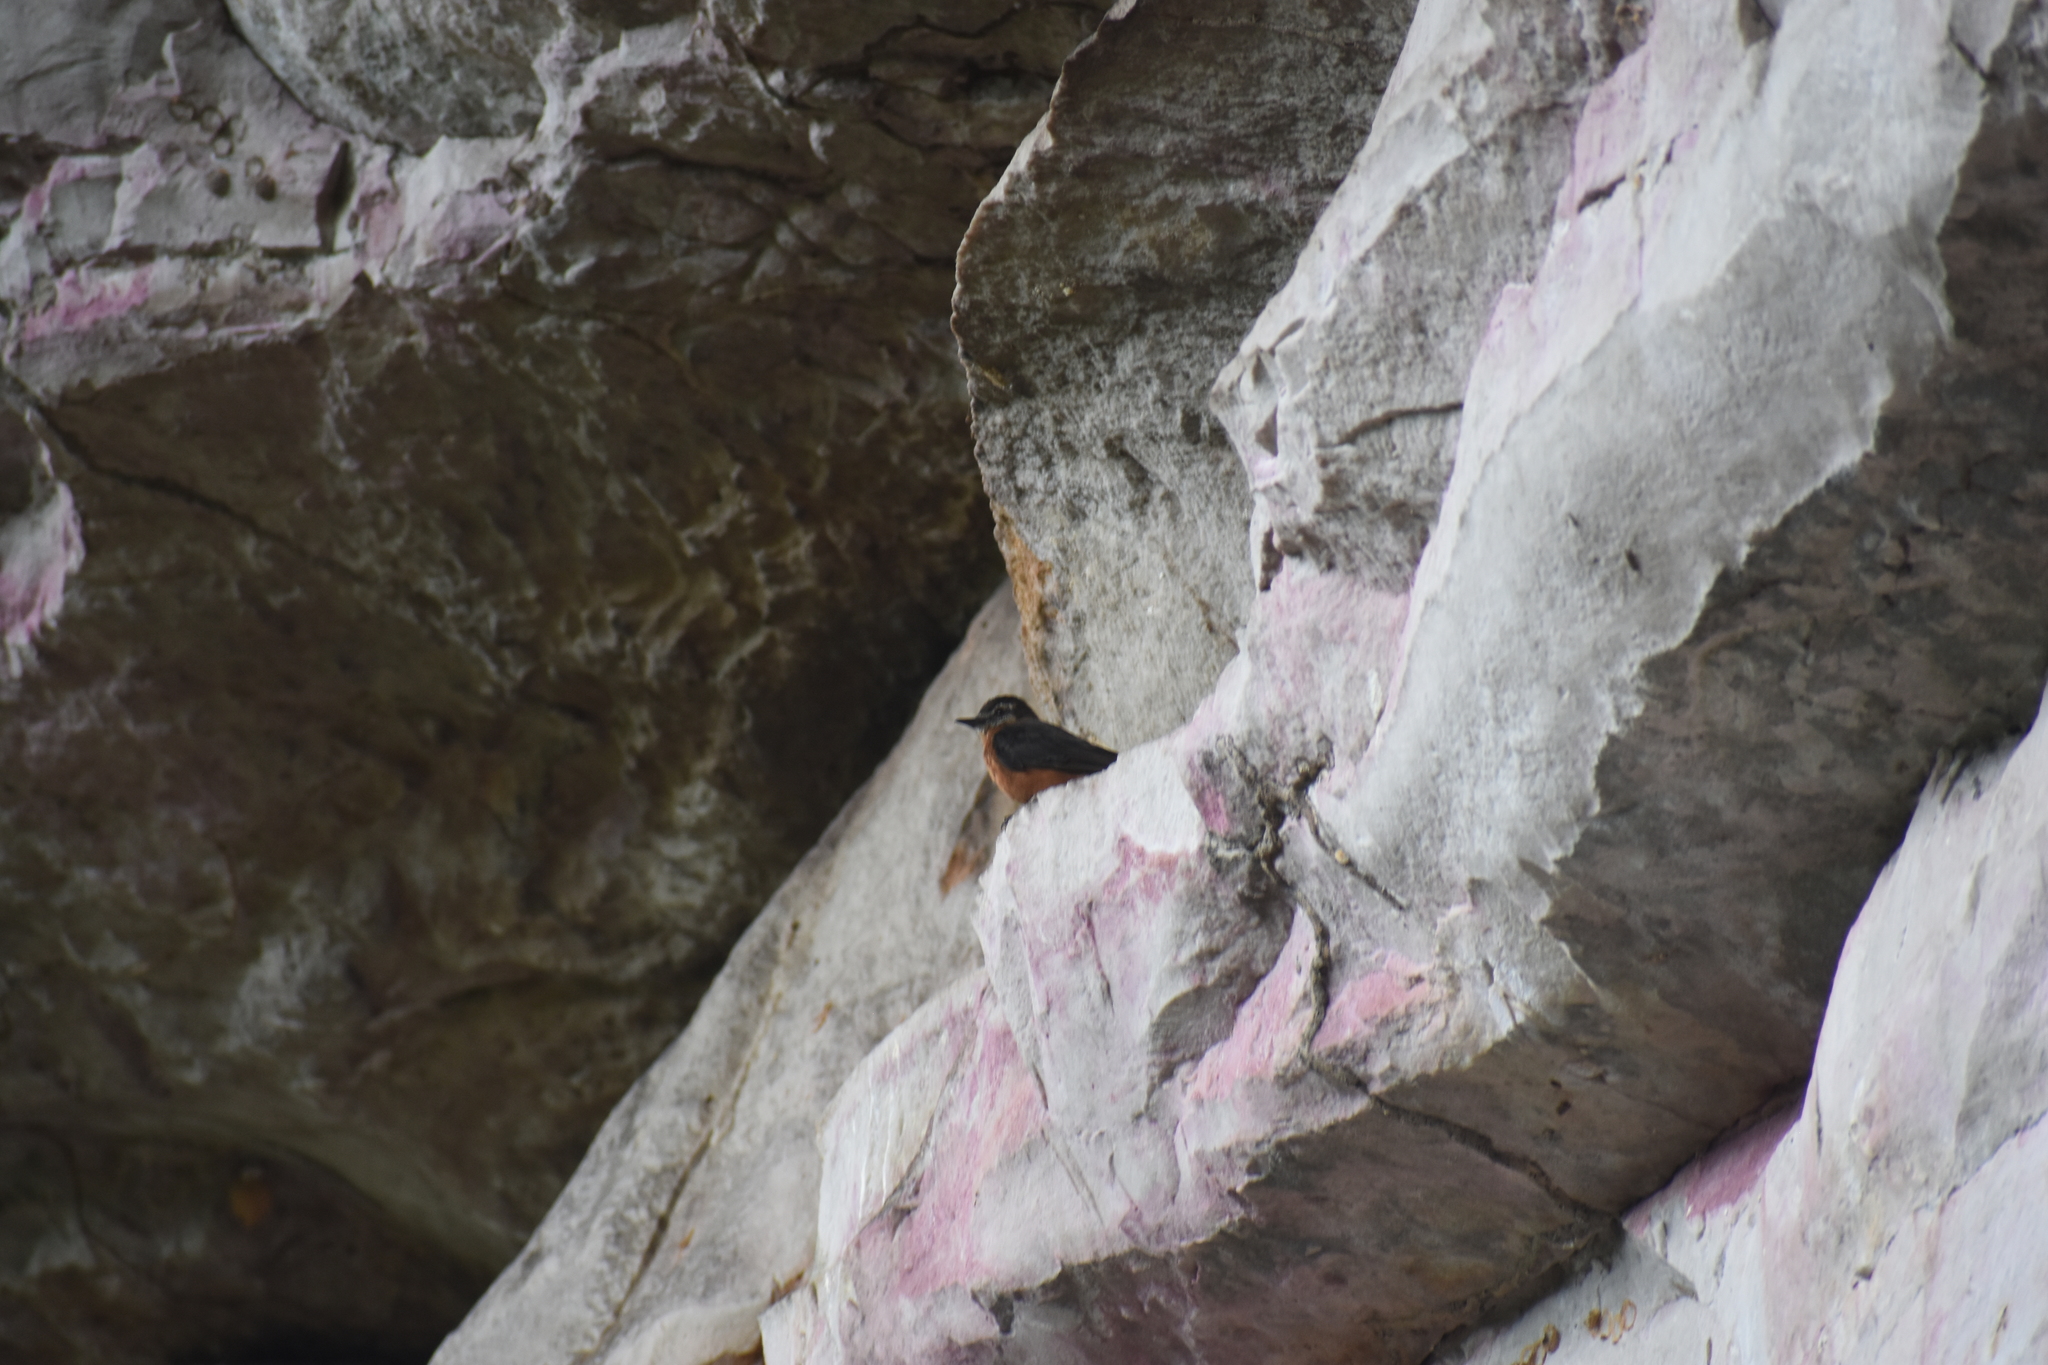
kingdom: Animalia
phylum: Chordata
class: Aves
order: Passeriformes
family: Tyrannidae
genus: Hirundinea
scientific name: Hirundinea ferruginea
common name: Cliff flycatcher
